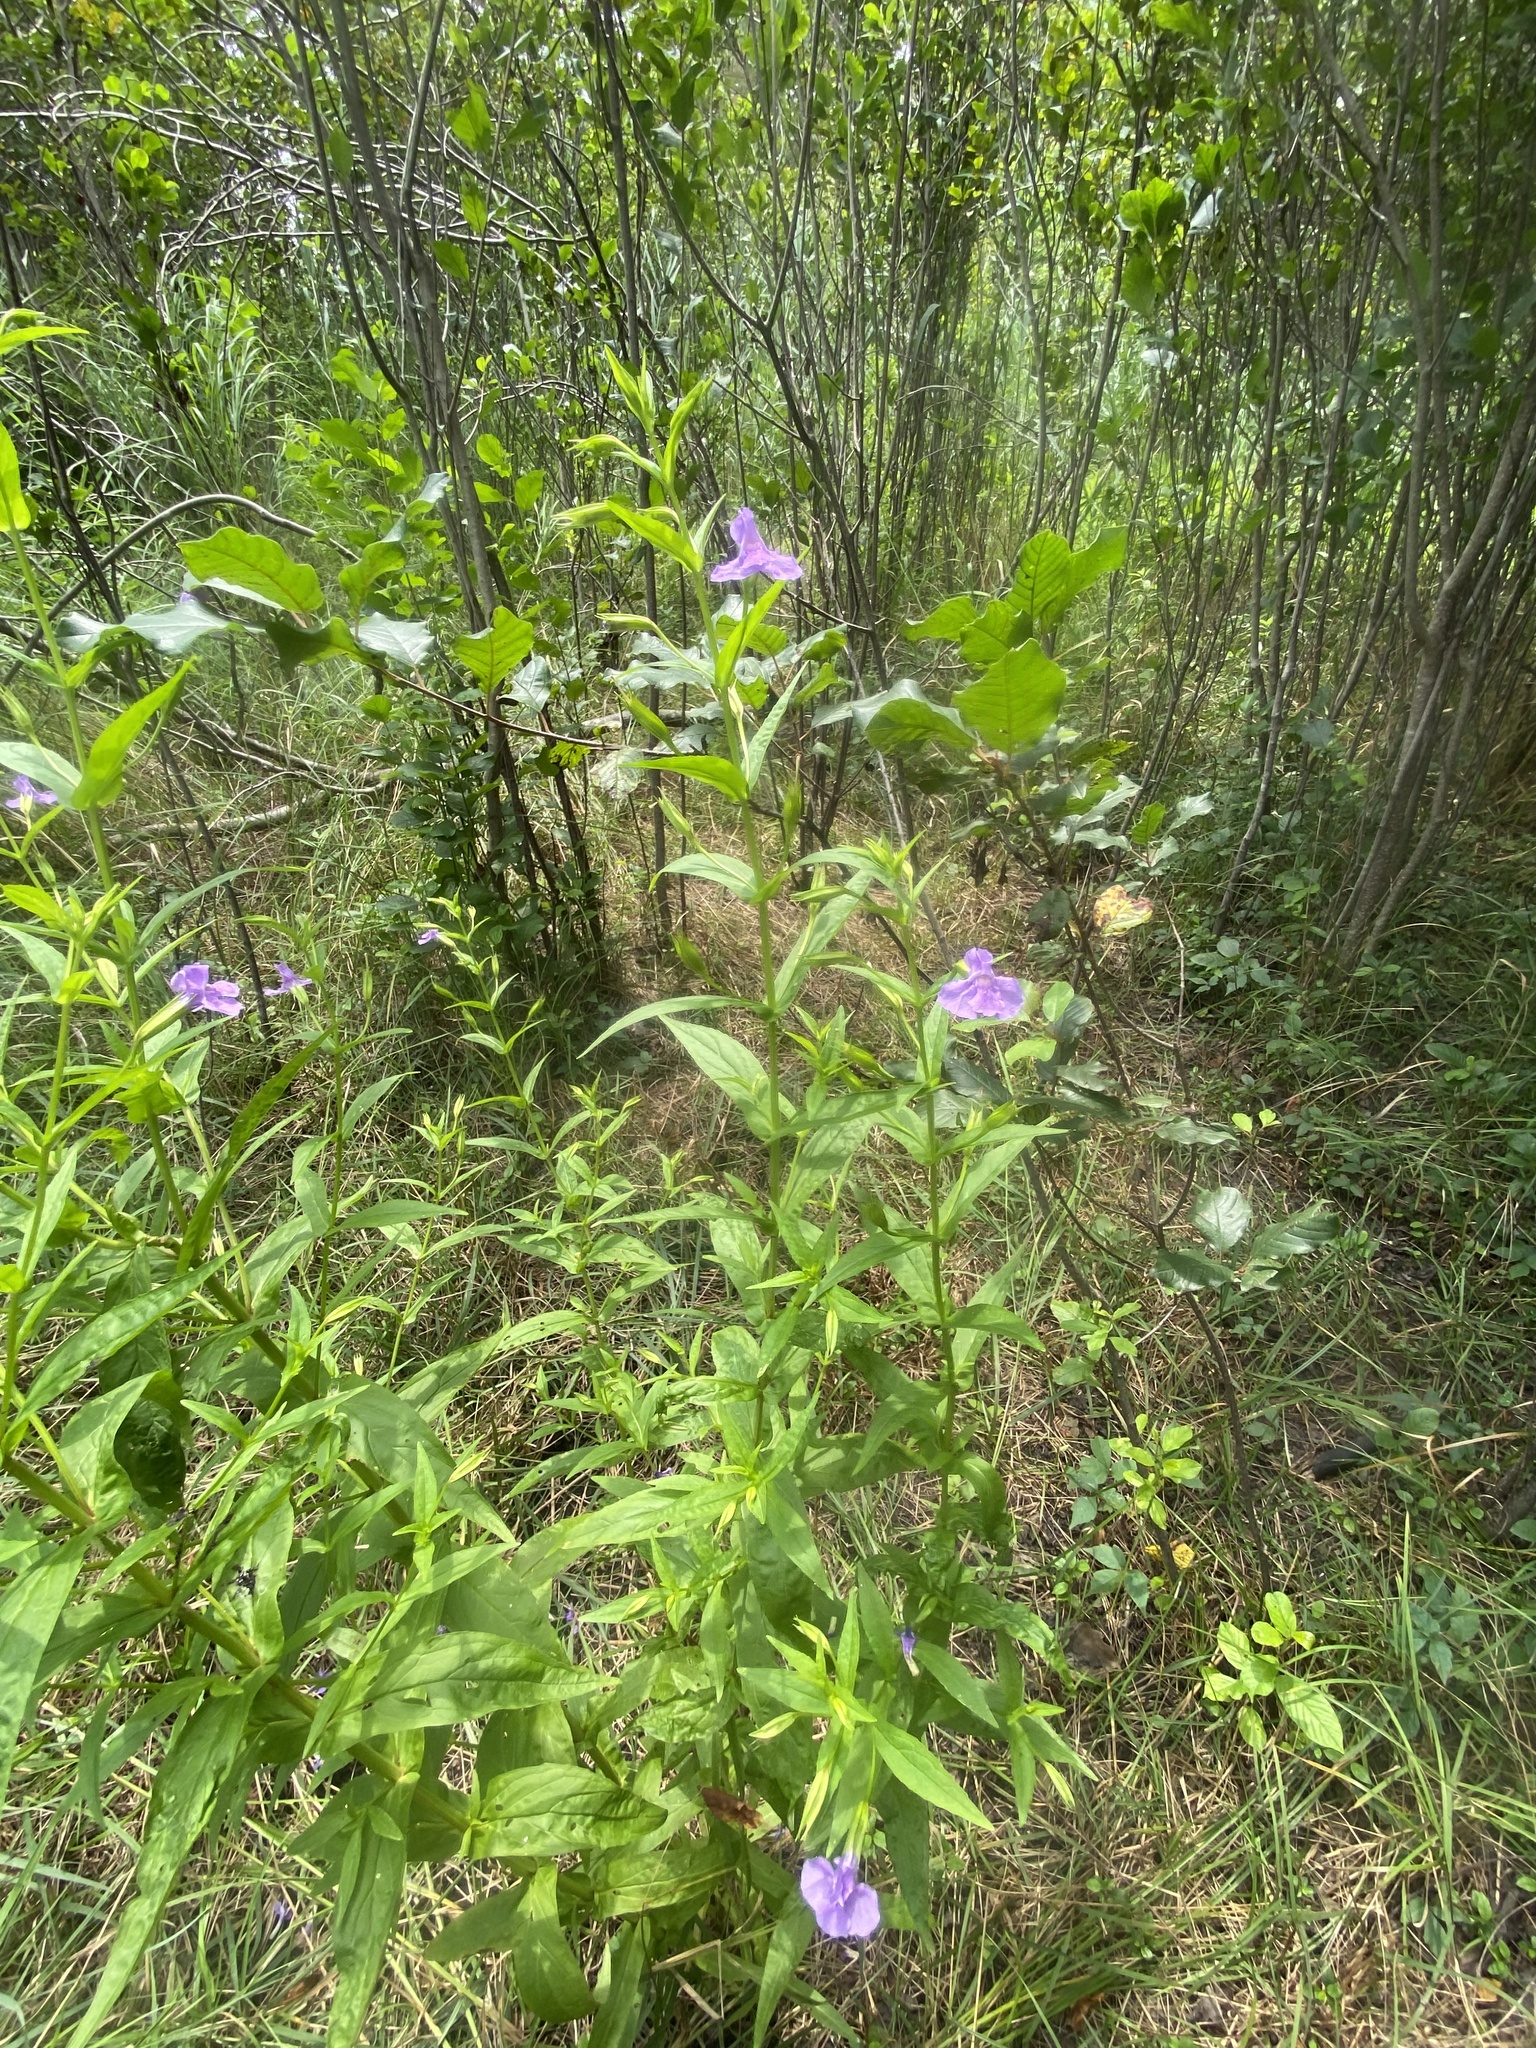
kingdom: Plantae
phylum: Tracheophyta
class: Magnoliopsida
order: Lamiales
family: Phrymaceae
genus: Mimulus
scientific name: Mimulus ringens
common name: Allegheny monkeyflower
